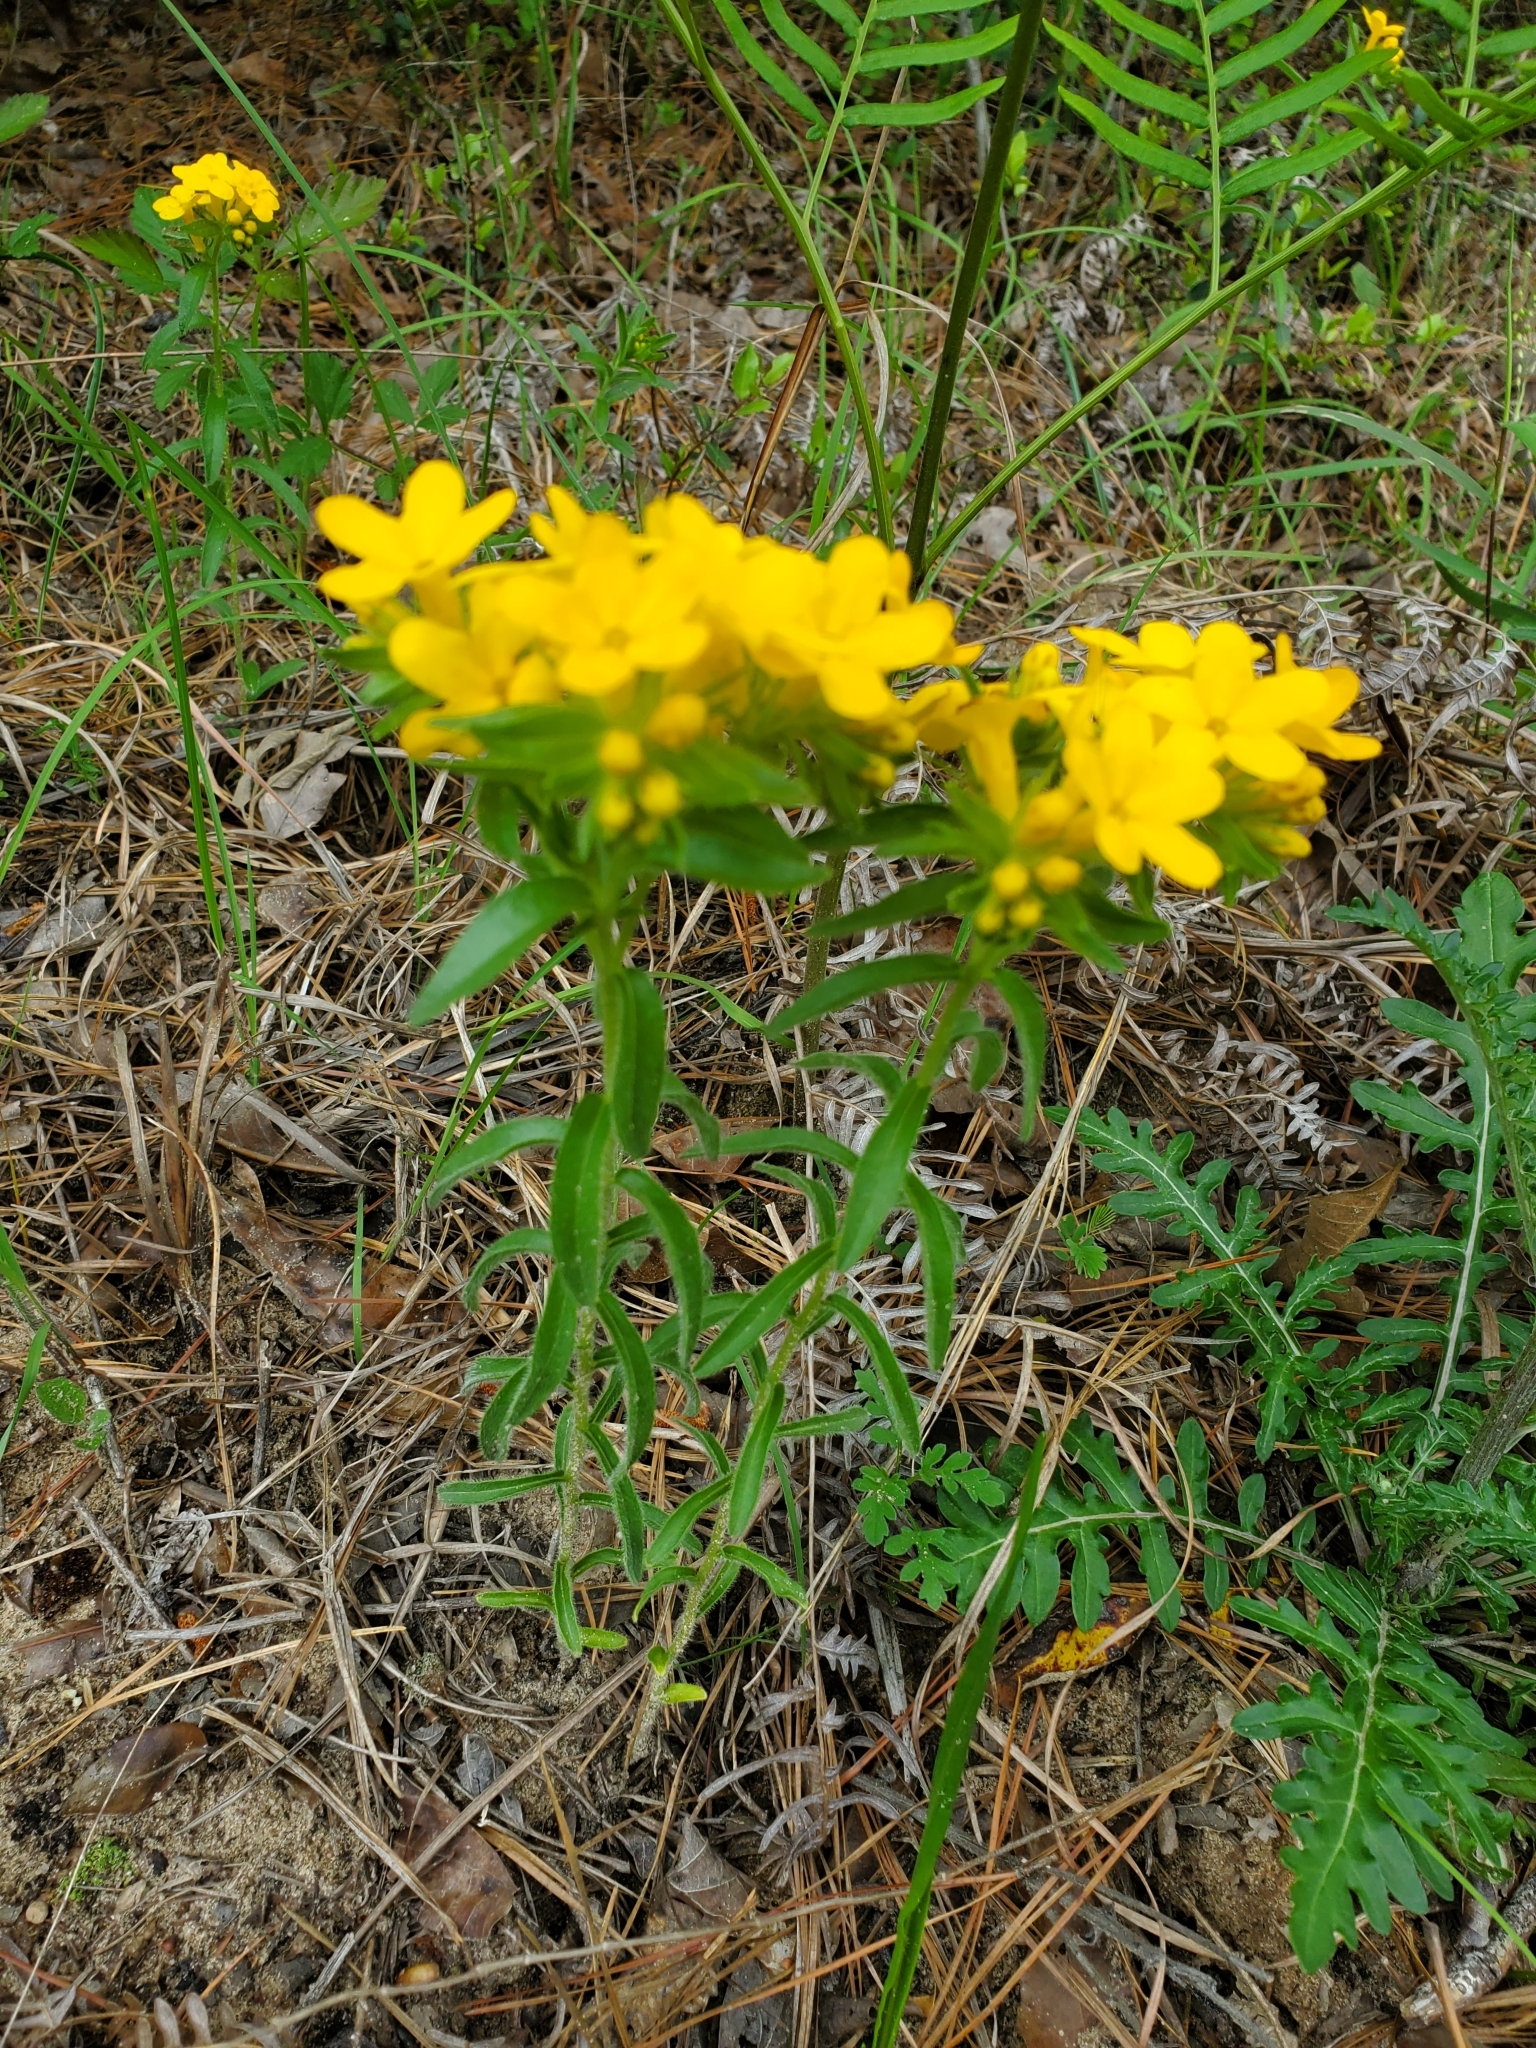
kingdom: Plantae
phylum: Tracheophyta
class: Magnoliopsida
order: Boraginales
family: Boraginaceae
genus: Lithospermum
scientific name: Lithospermum caroliniense
